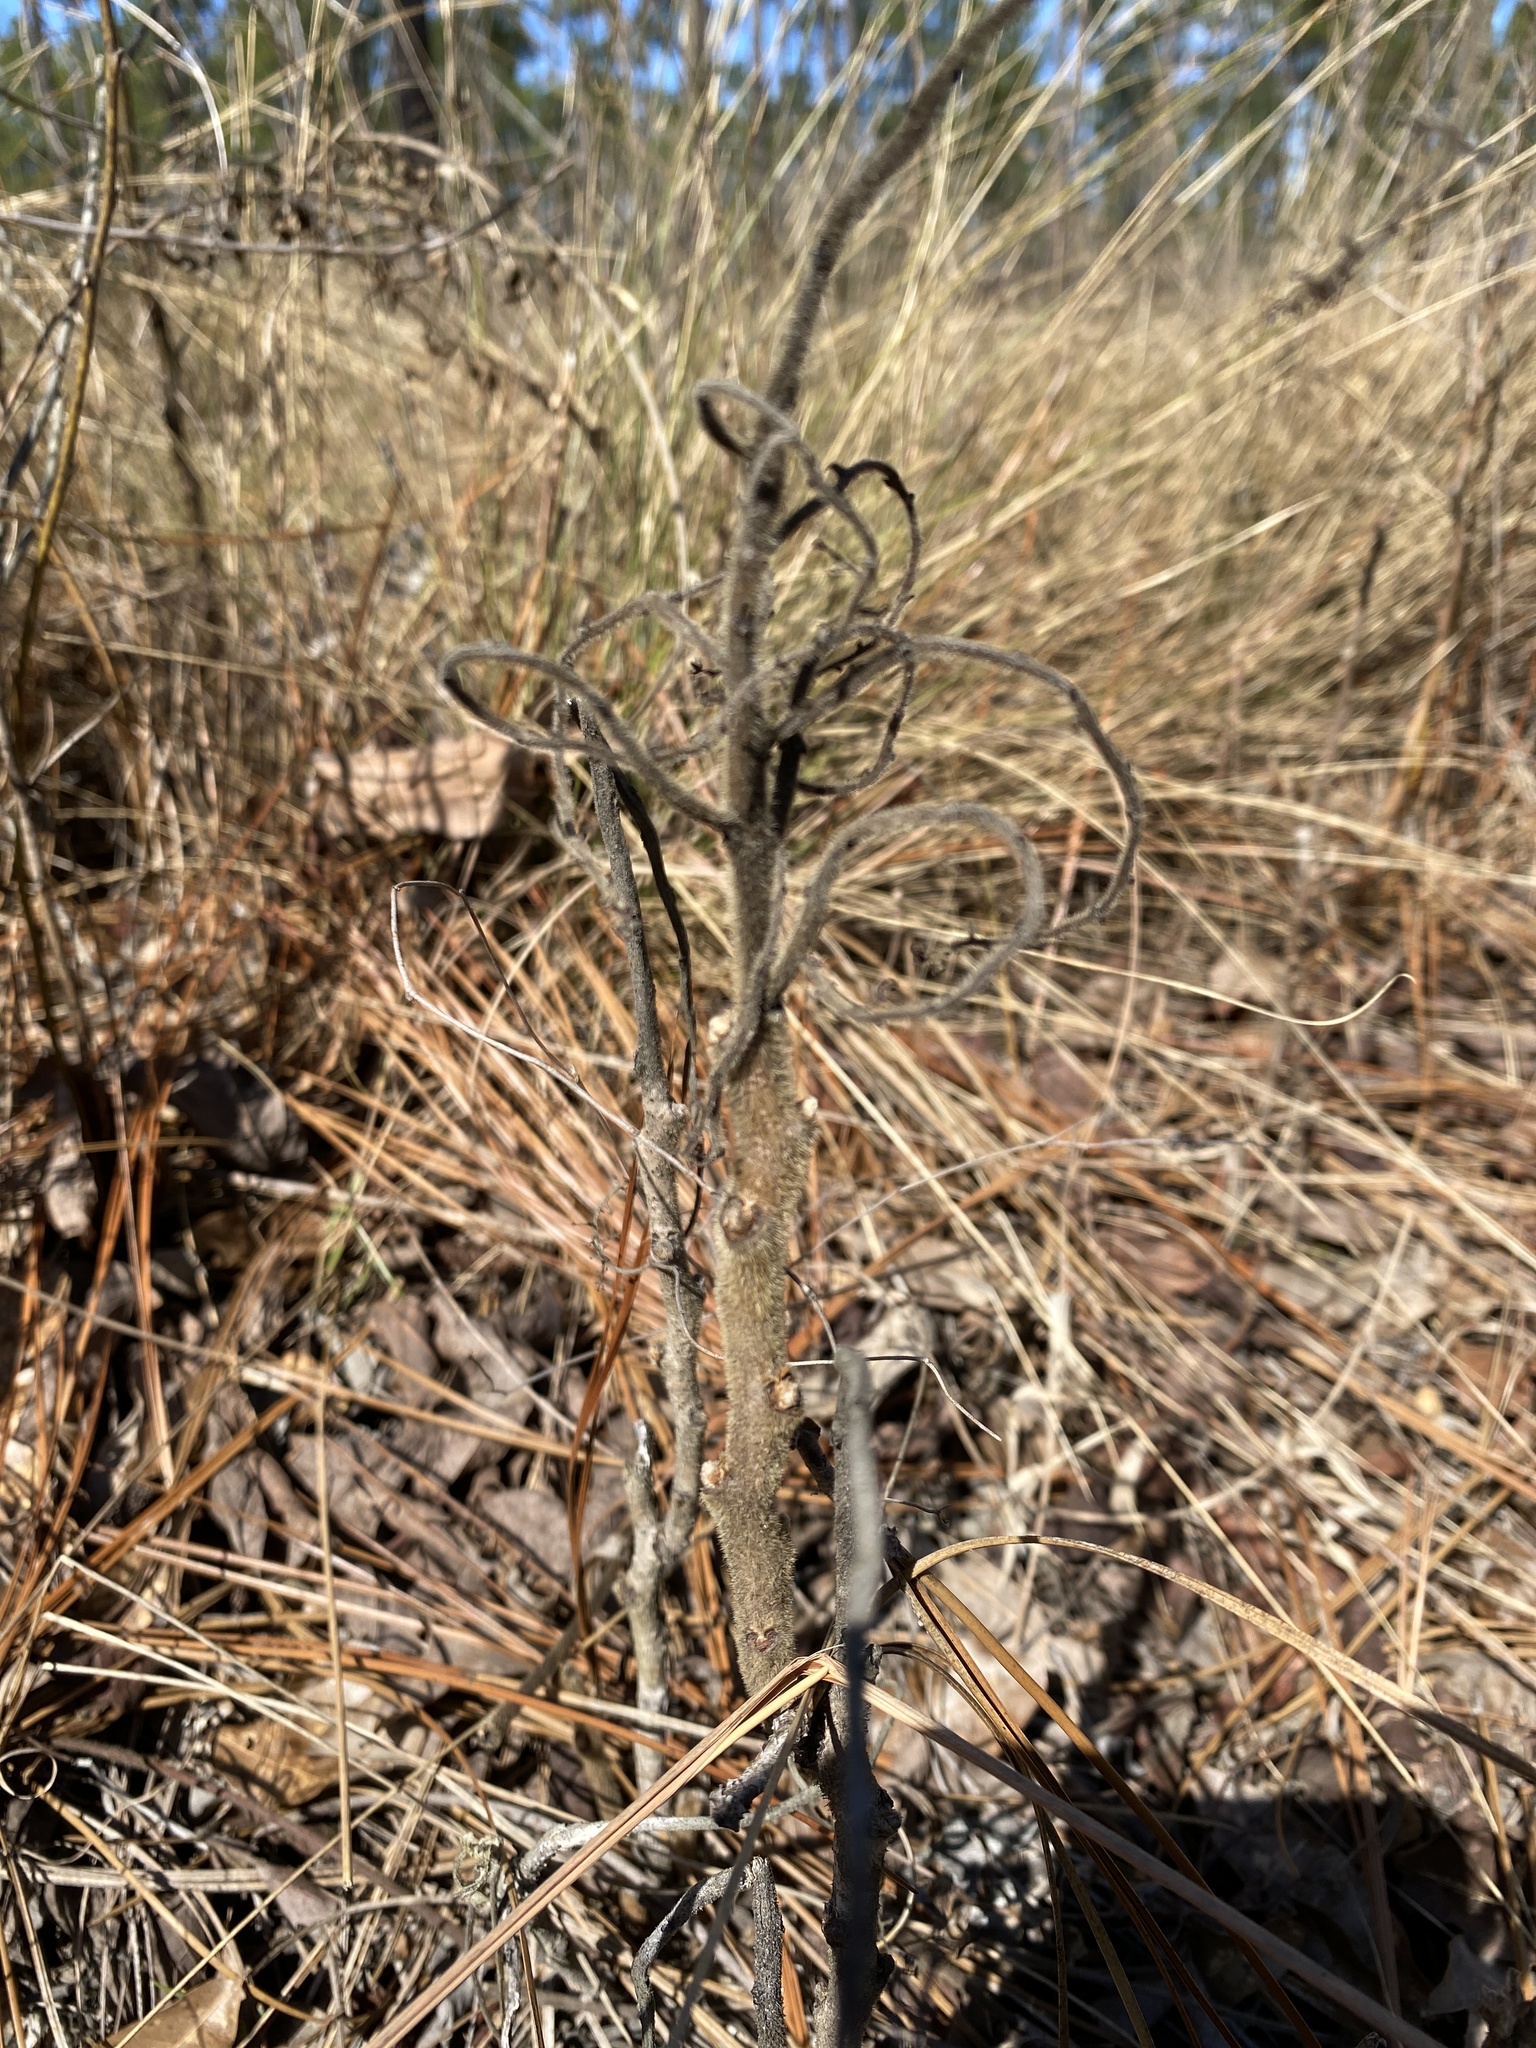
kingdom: Plantae
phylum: Tracheophyta
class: Magnoliopsida
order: Sapindales
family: Anacardiaceae
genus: Rhus
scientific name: Rhus michauxii
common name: Michaux's sumac
